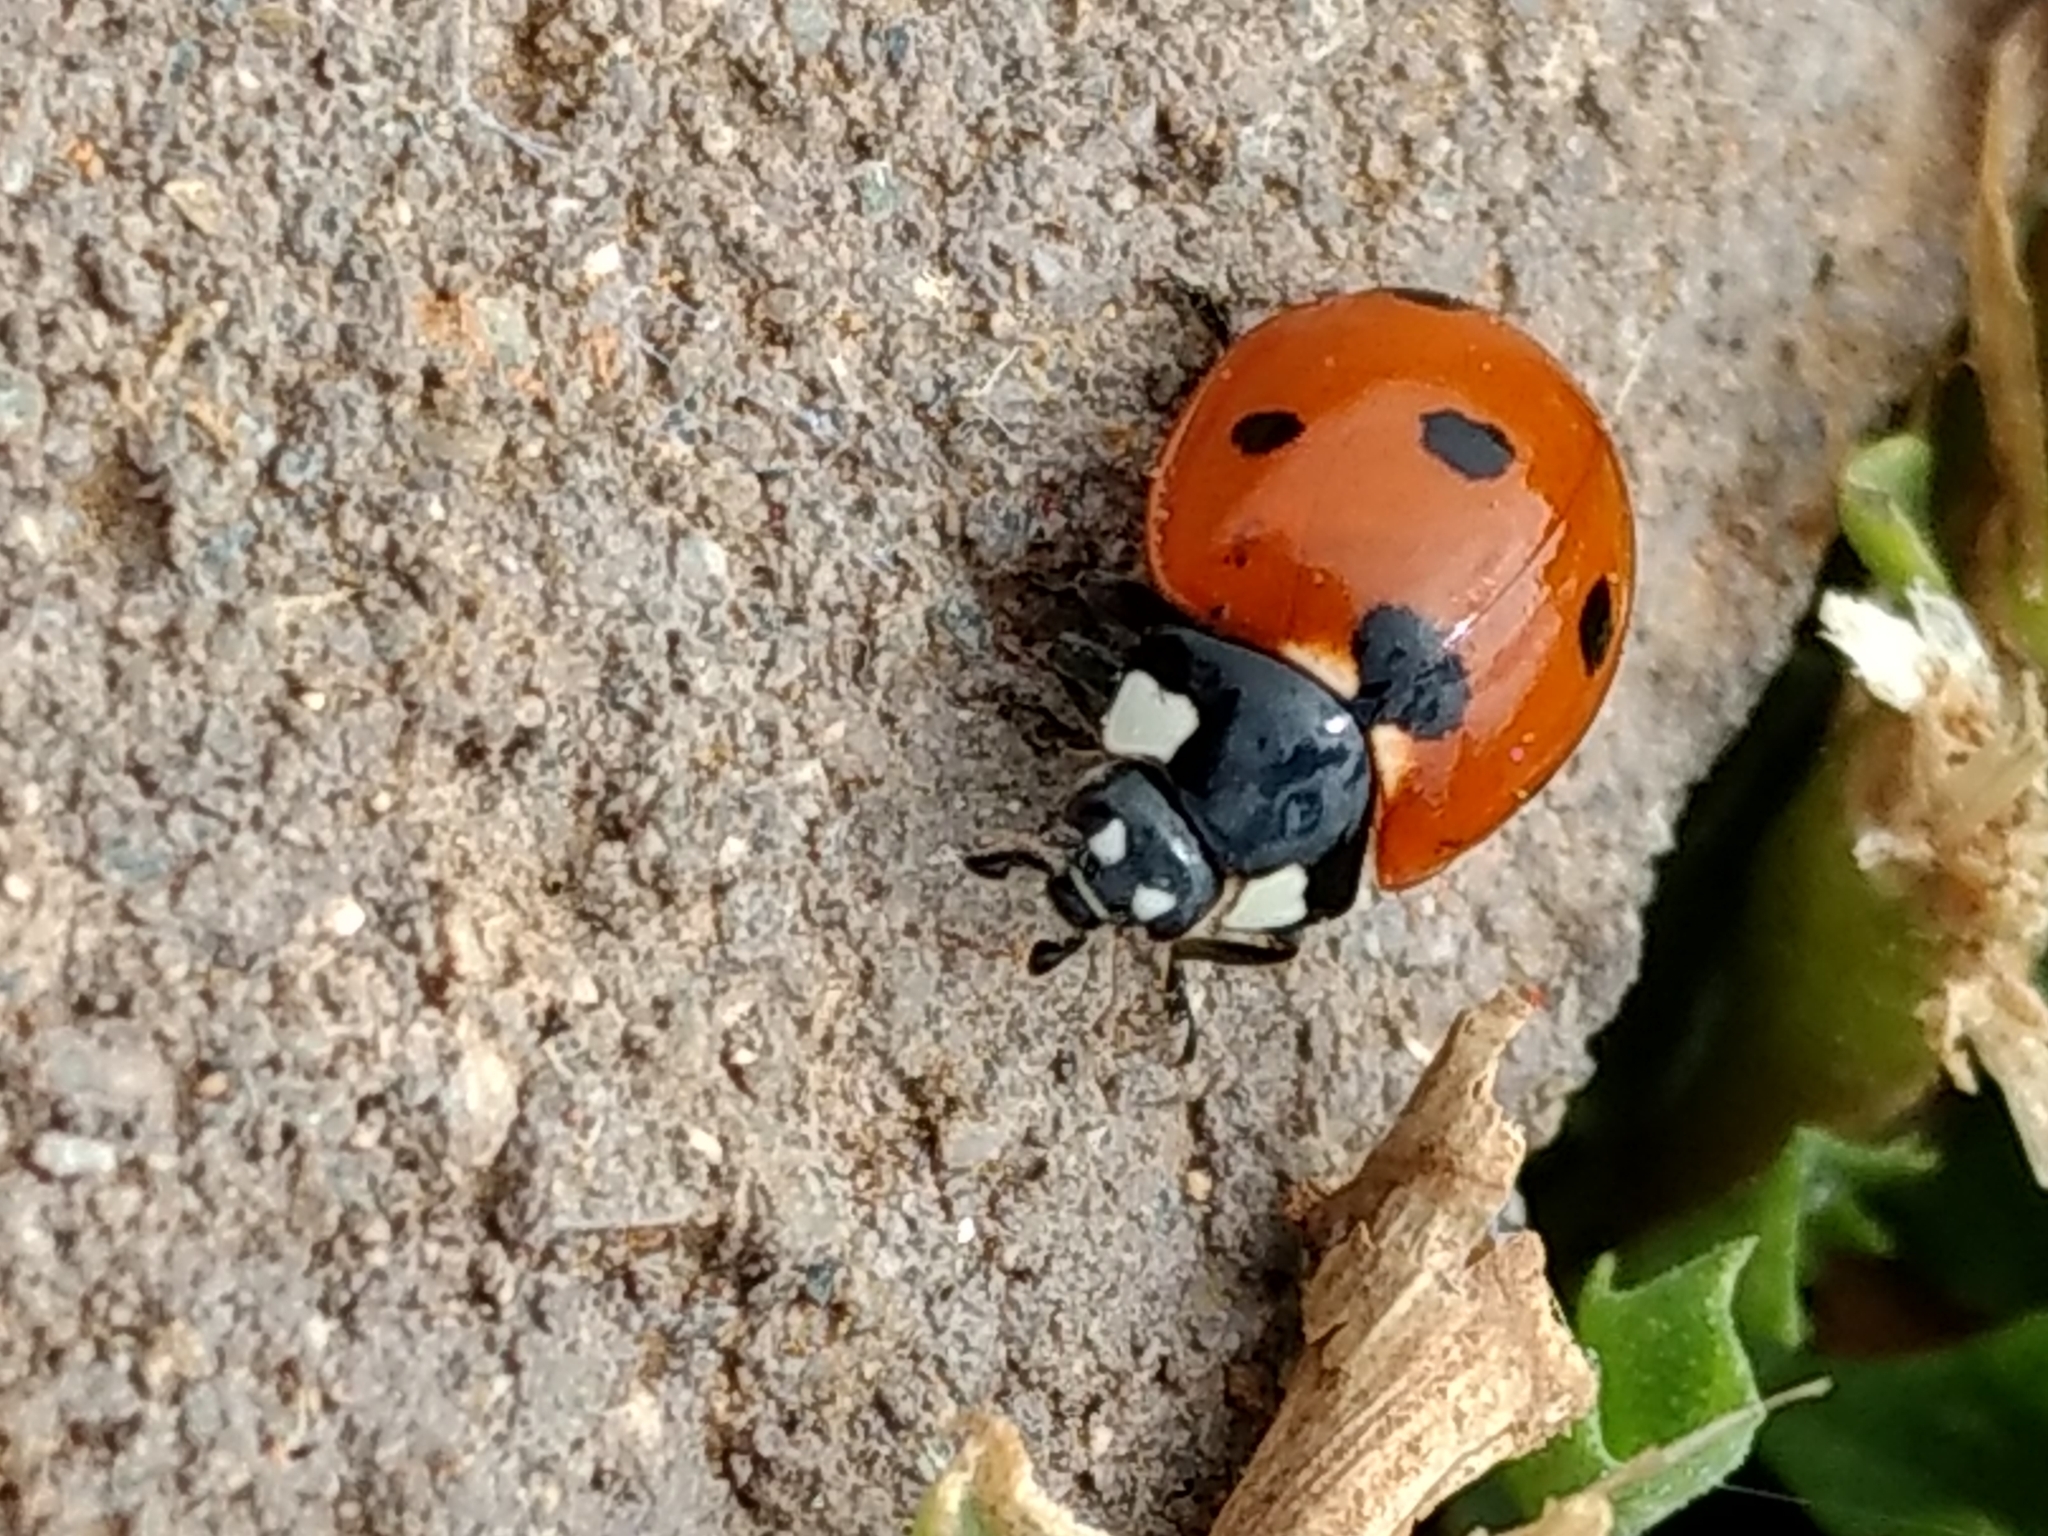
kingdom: Animalia
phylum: Arthropoda
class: Insecta
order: Coleoptera
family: Coccinellidae
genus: Coccinella
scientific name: Coccinella septempunctata
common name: Sevenspotted lady beetle
